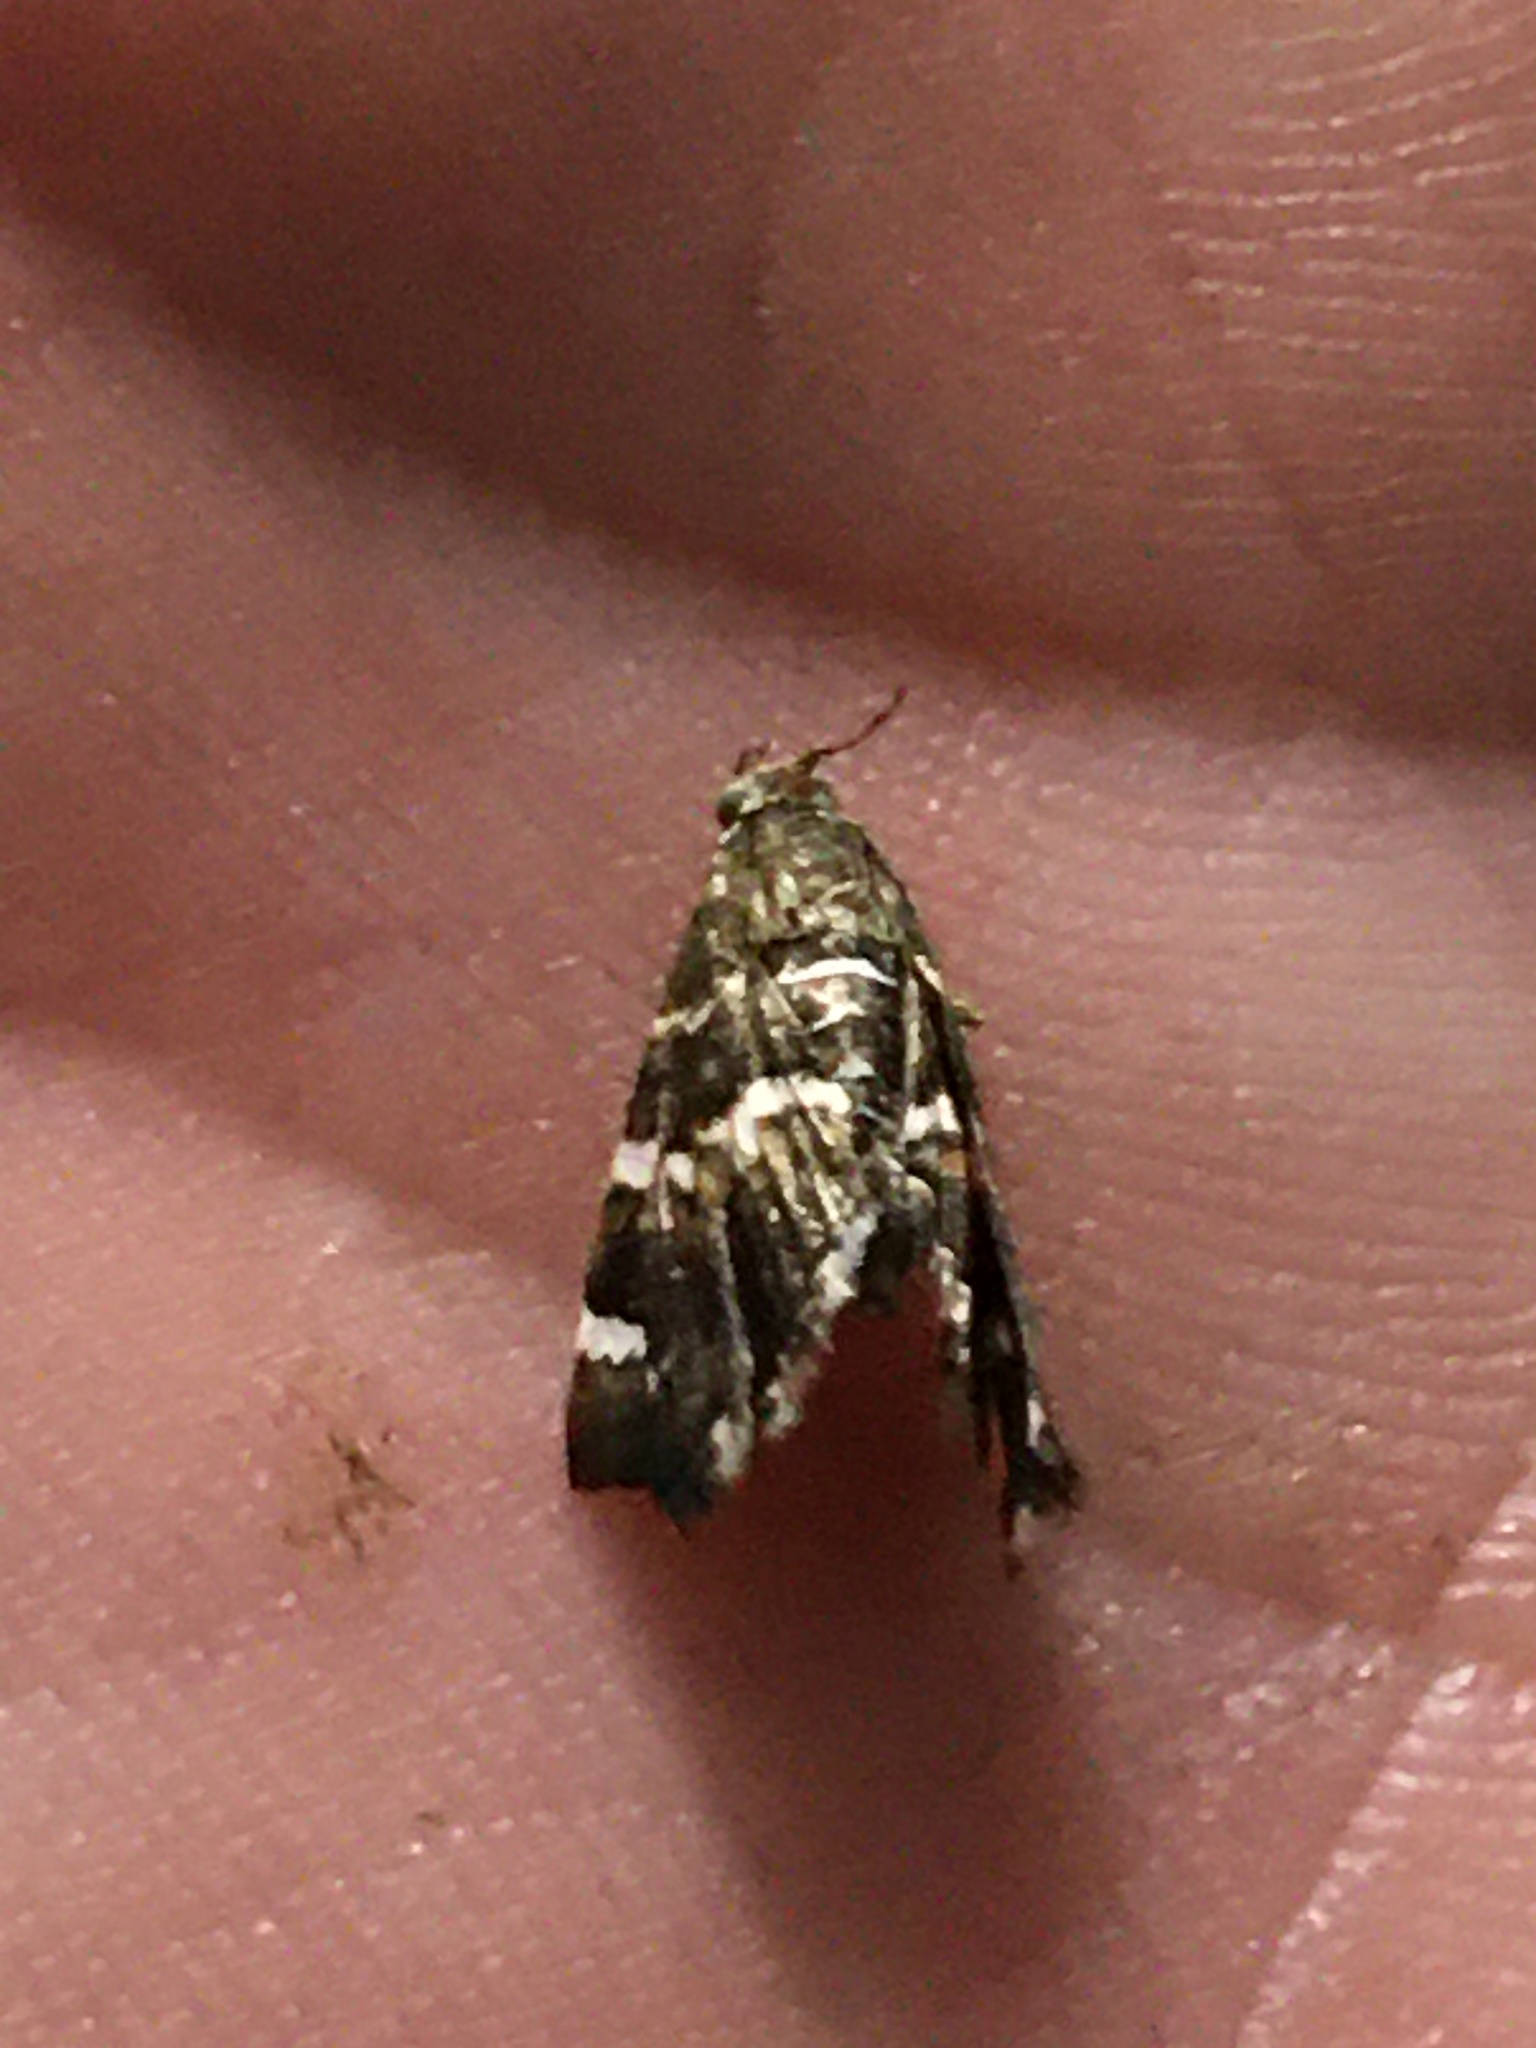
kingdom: Animalia
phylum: Arthropoda
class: Insecta
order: Lepidoptera
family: Crambidae
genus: Hymenia
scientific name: Hymenia perspectalis
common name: Spotted beet webworm
